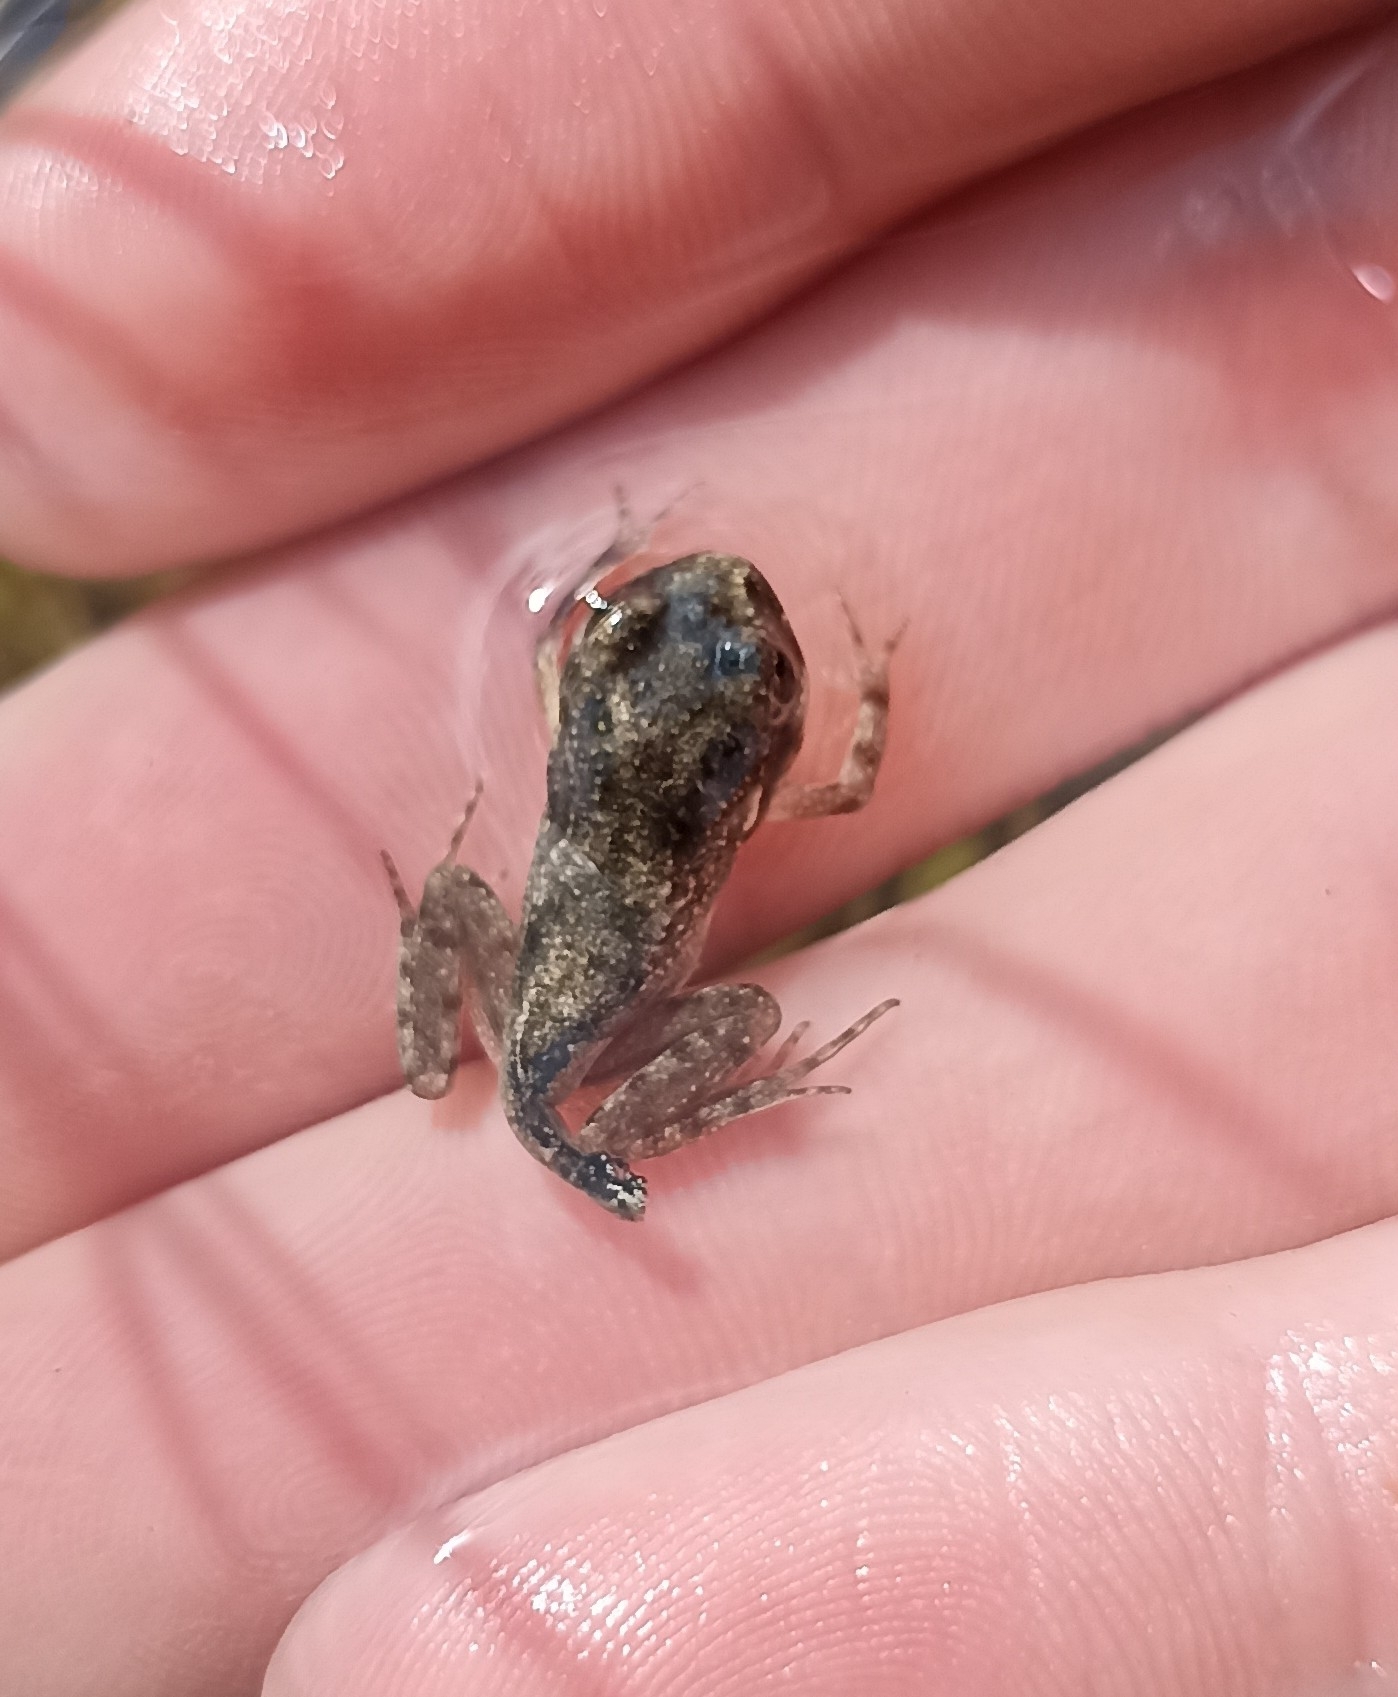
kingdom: Animalia
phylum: Chordata
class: Amphibia
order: Anura
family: Pelodytidae
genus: Pelodytes
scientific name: Pelodytes punctatus
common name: Parsley frog
